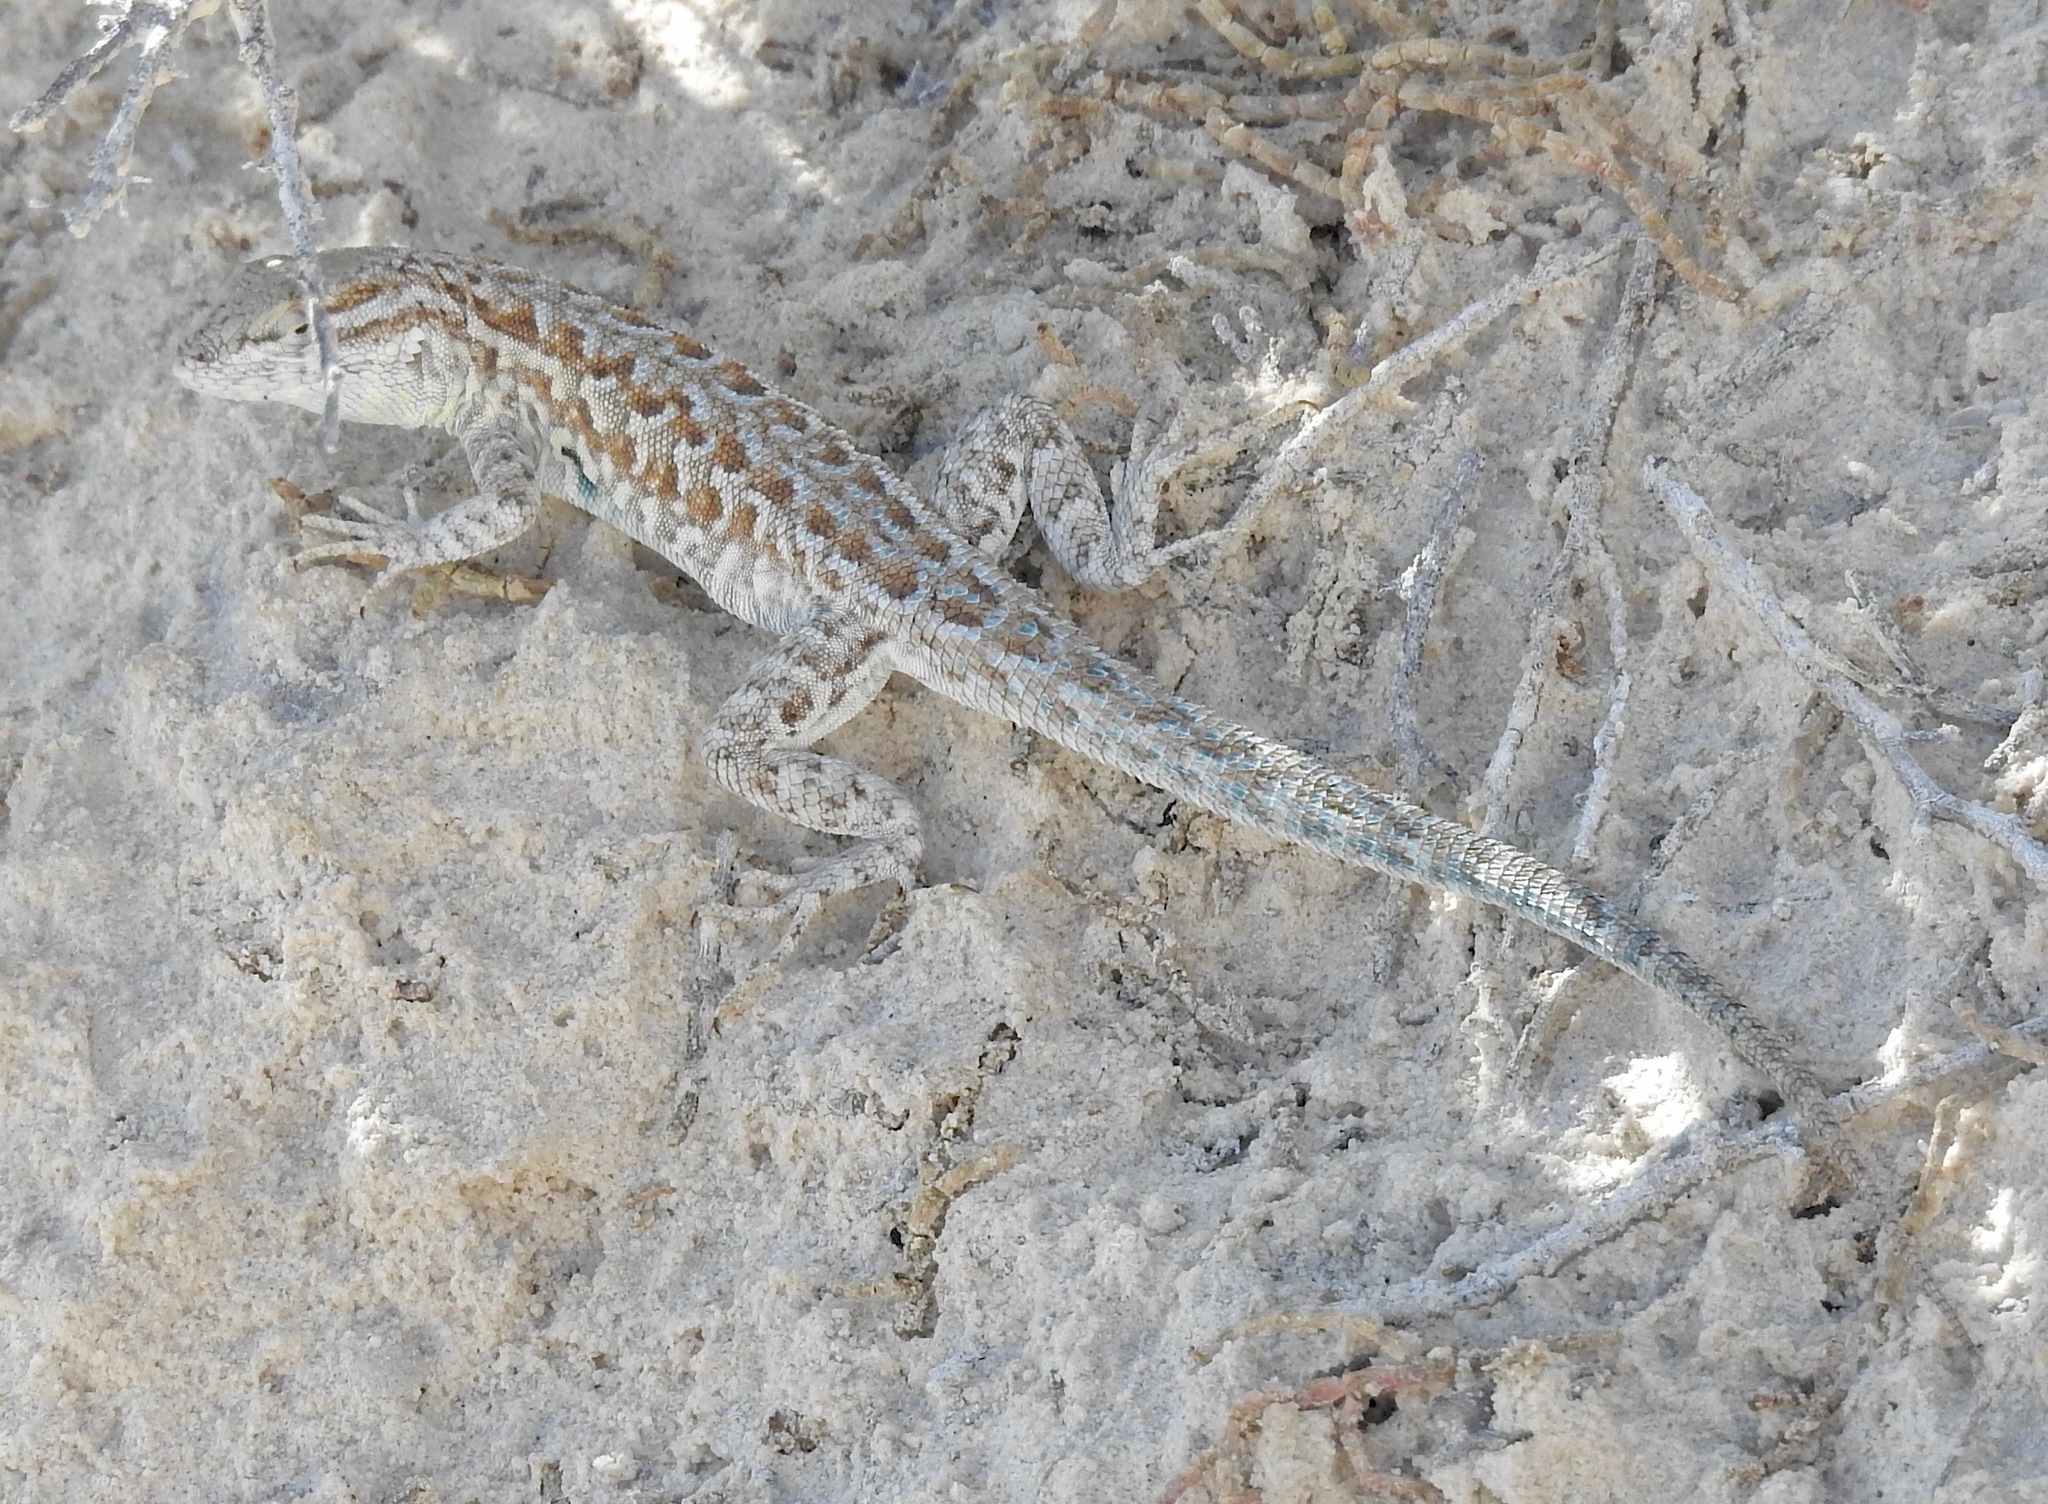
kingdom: Animalia
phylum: Chordata
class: Squamata
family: Phrynosomatidae
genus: Uta
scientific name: Uta stansburiana
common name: Side-blotched lizard
